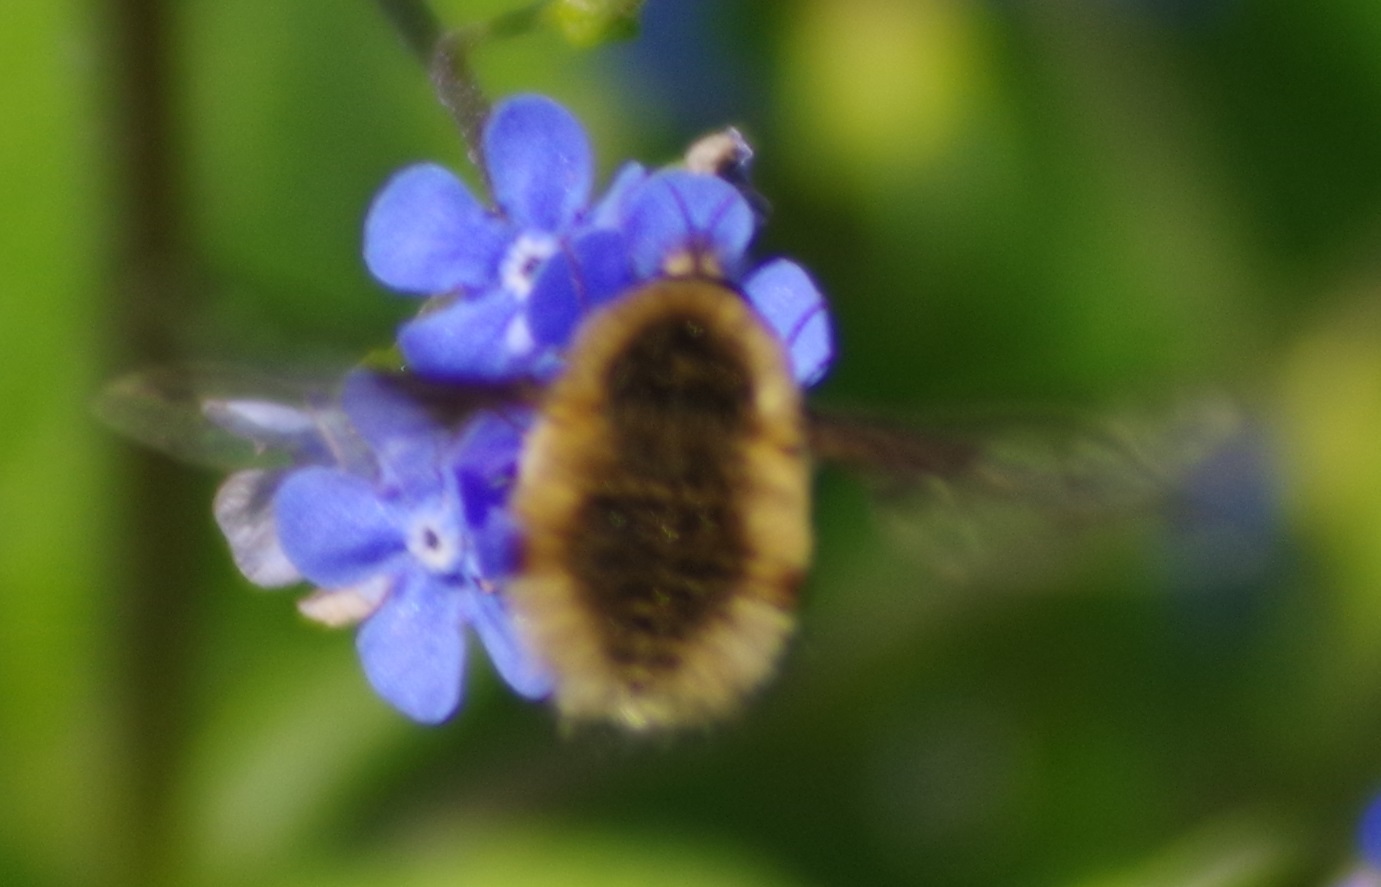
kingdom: Animalia
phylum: Arthropoda
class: Insecta
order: Diptera
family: Bombyliidae
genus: Bombylius
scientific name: Bombylius major
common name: Bee fly
